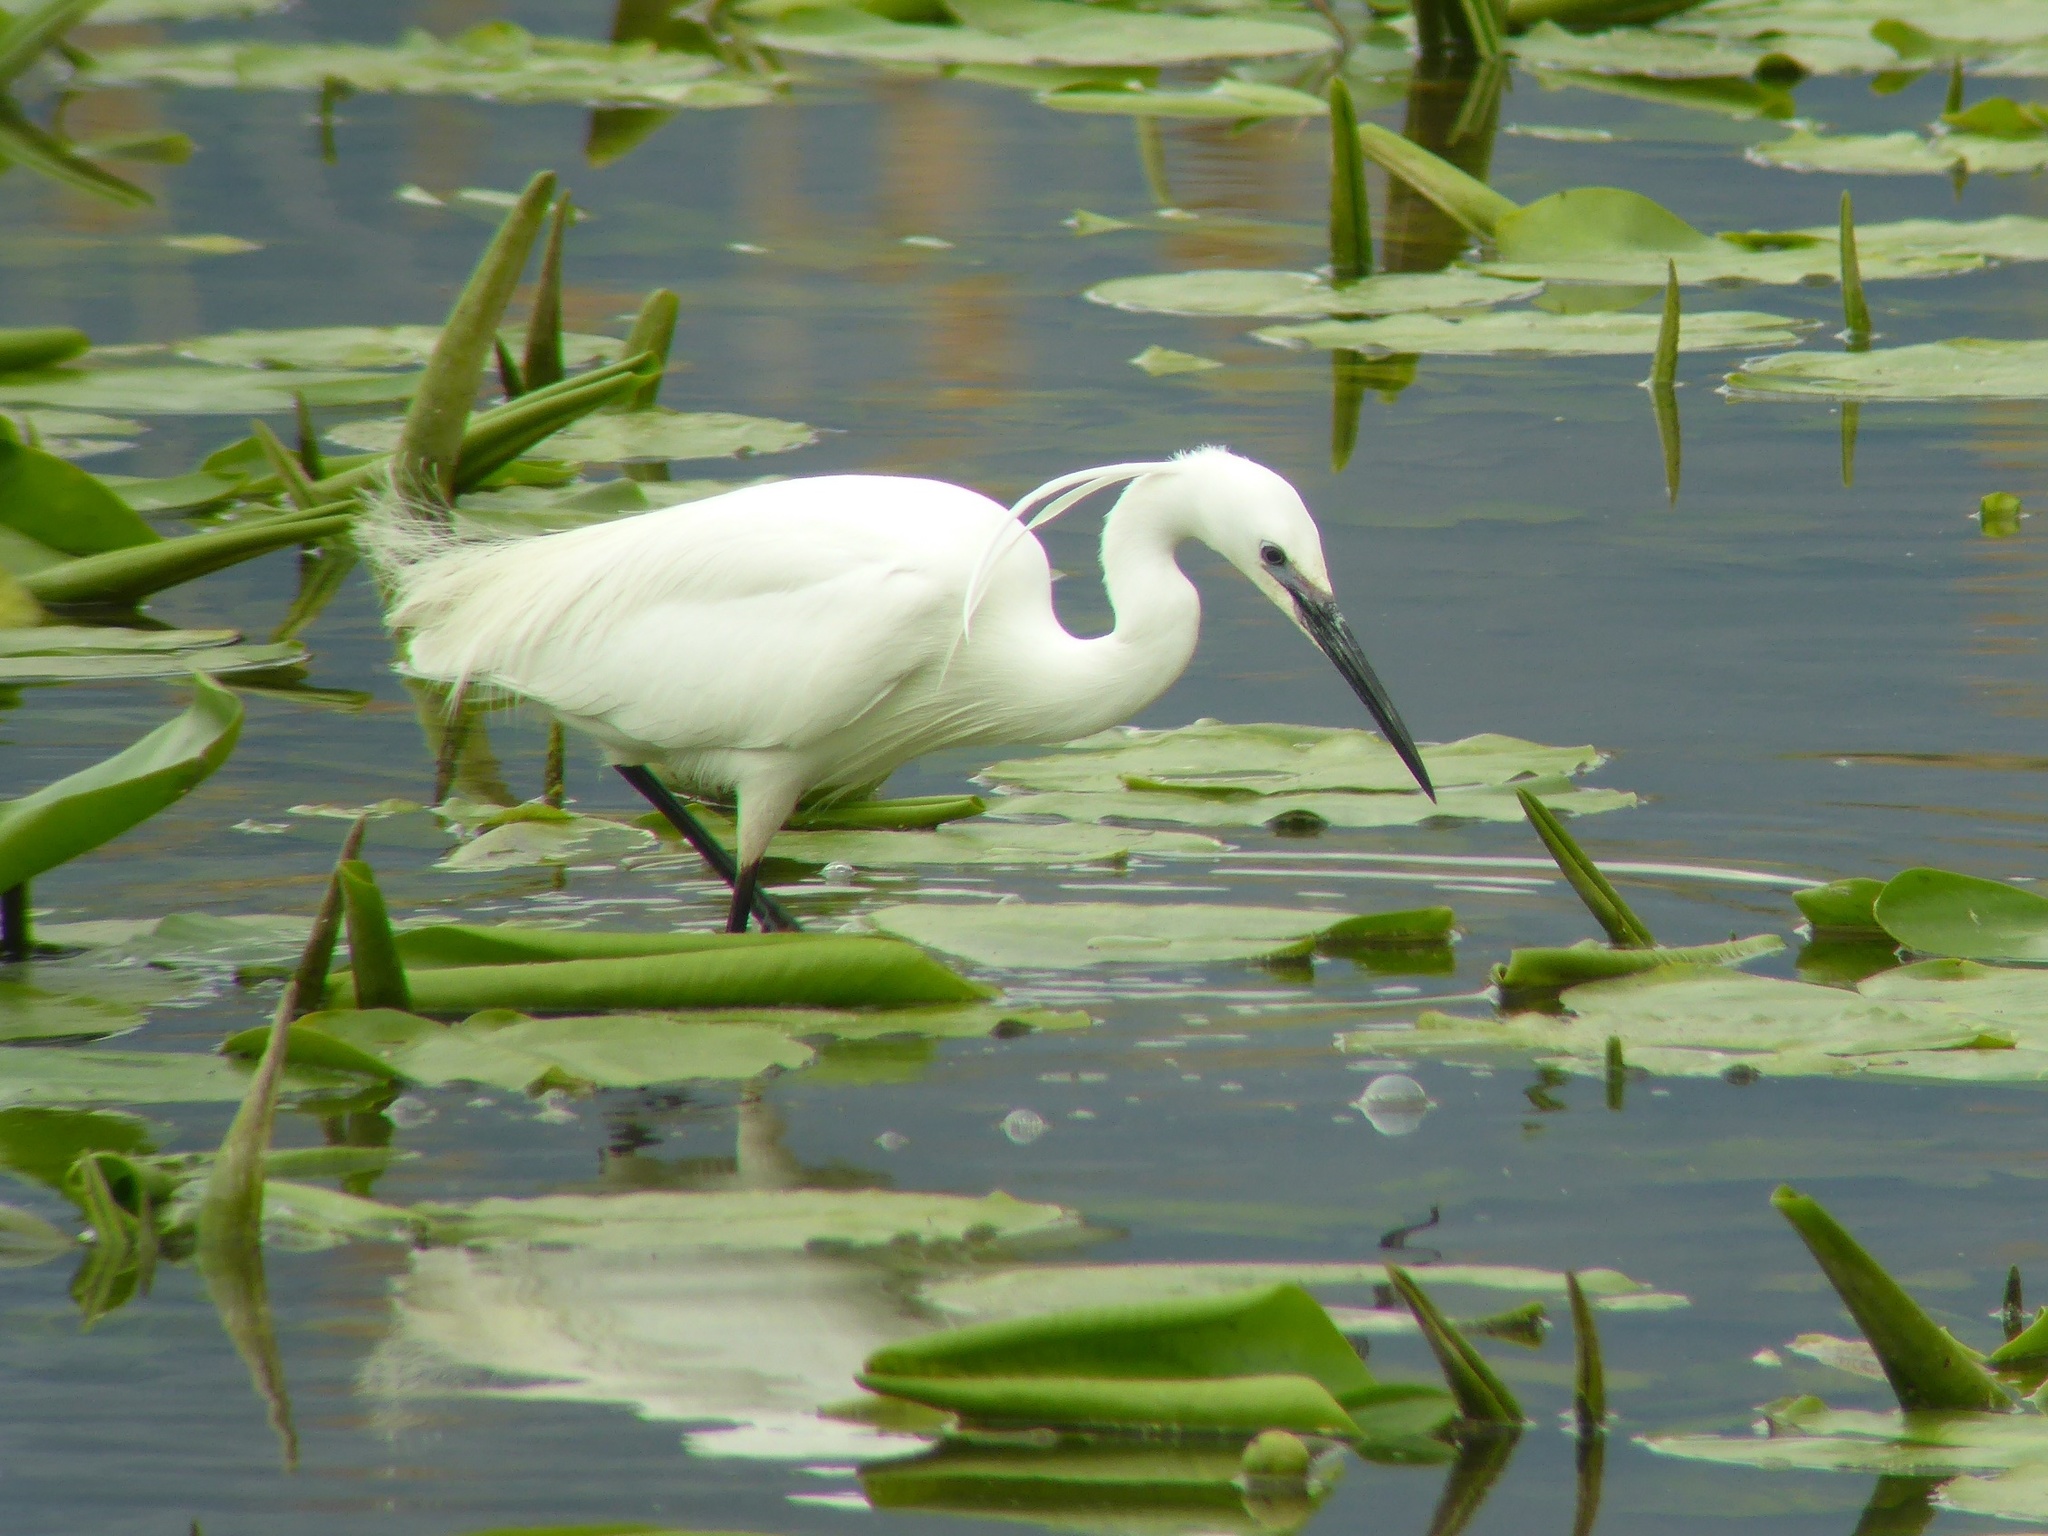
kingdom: Animalia
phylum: Chordata
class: Aves
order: Pelecaniformes
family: Ardeidae
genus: Egretta
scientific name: Egretta garzetta
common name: Little egret
